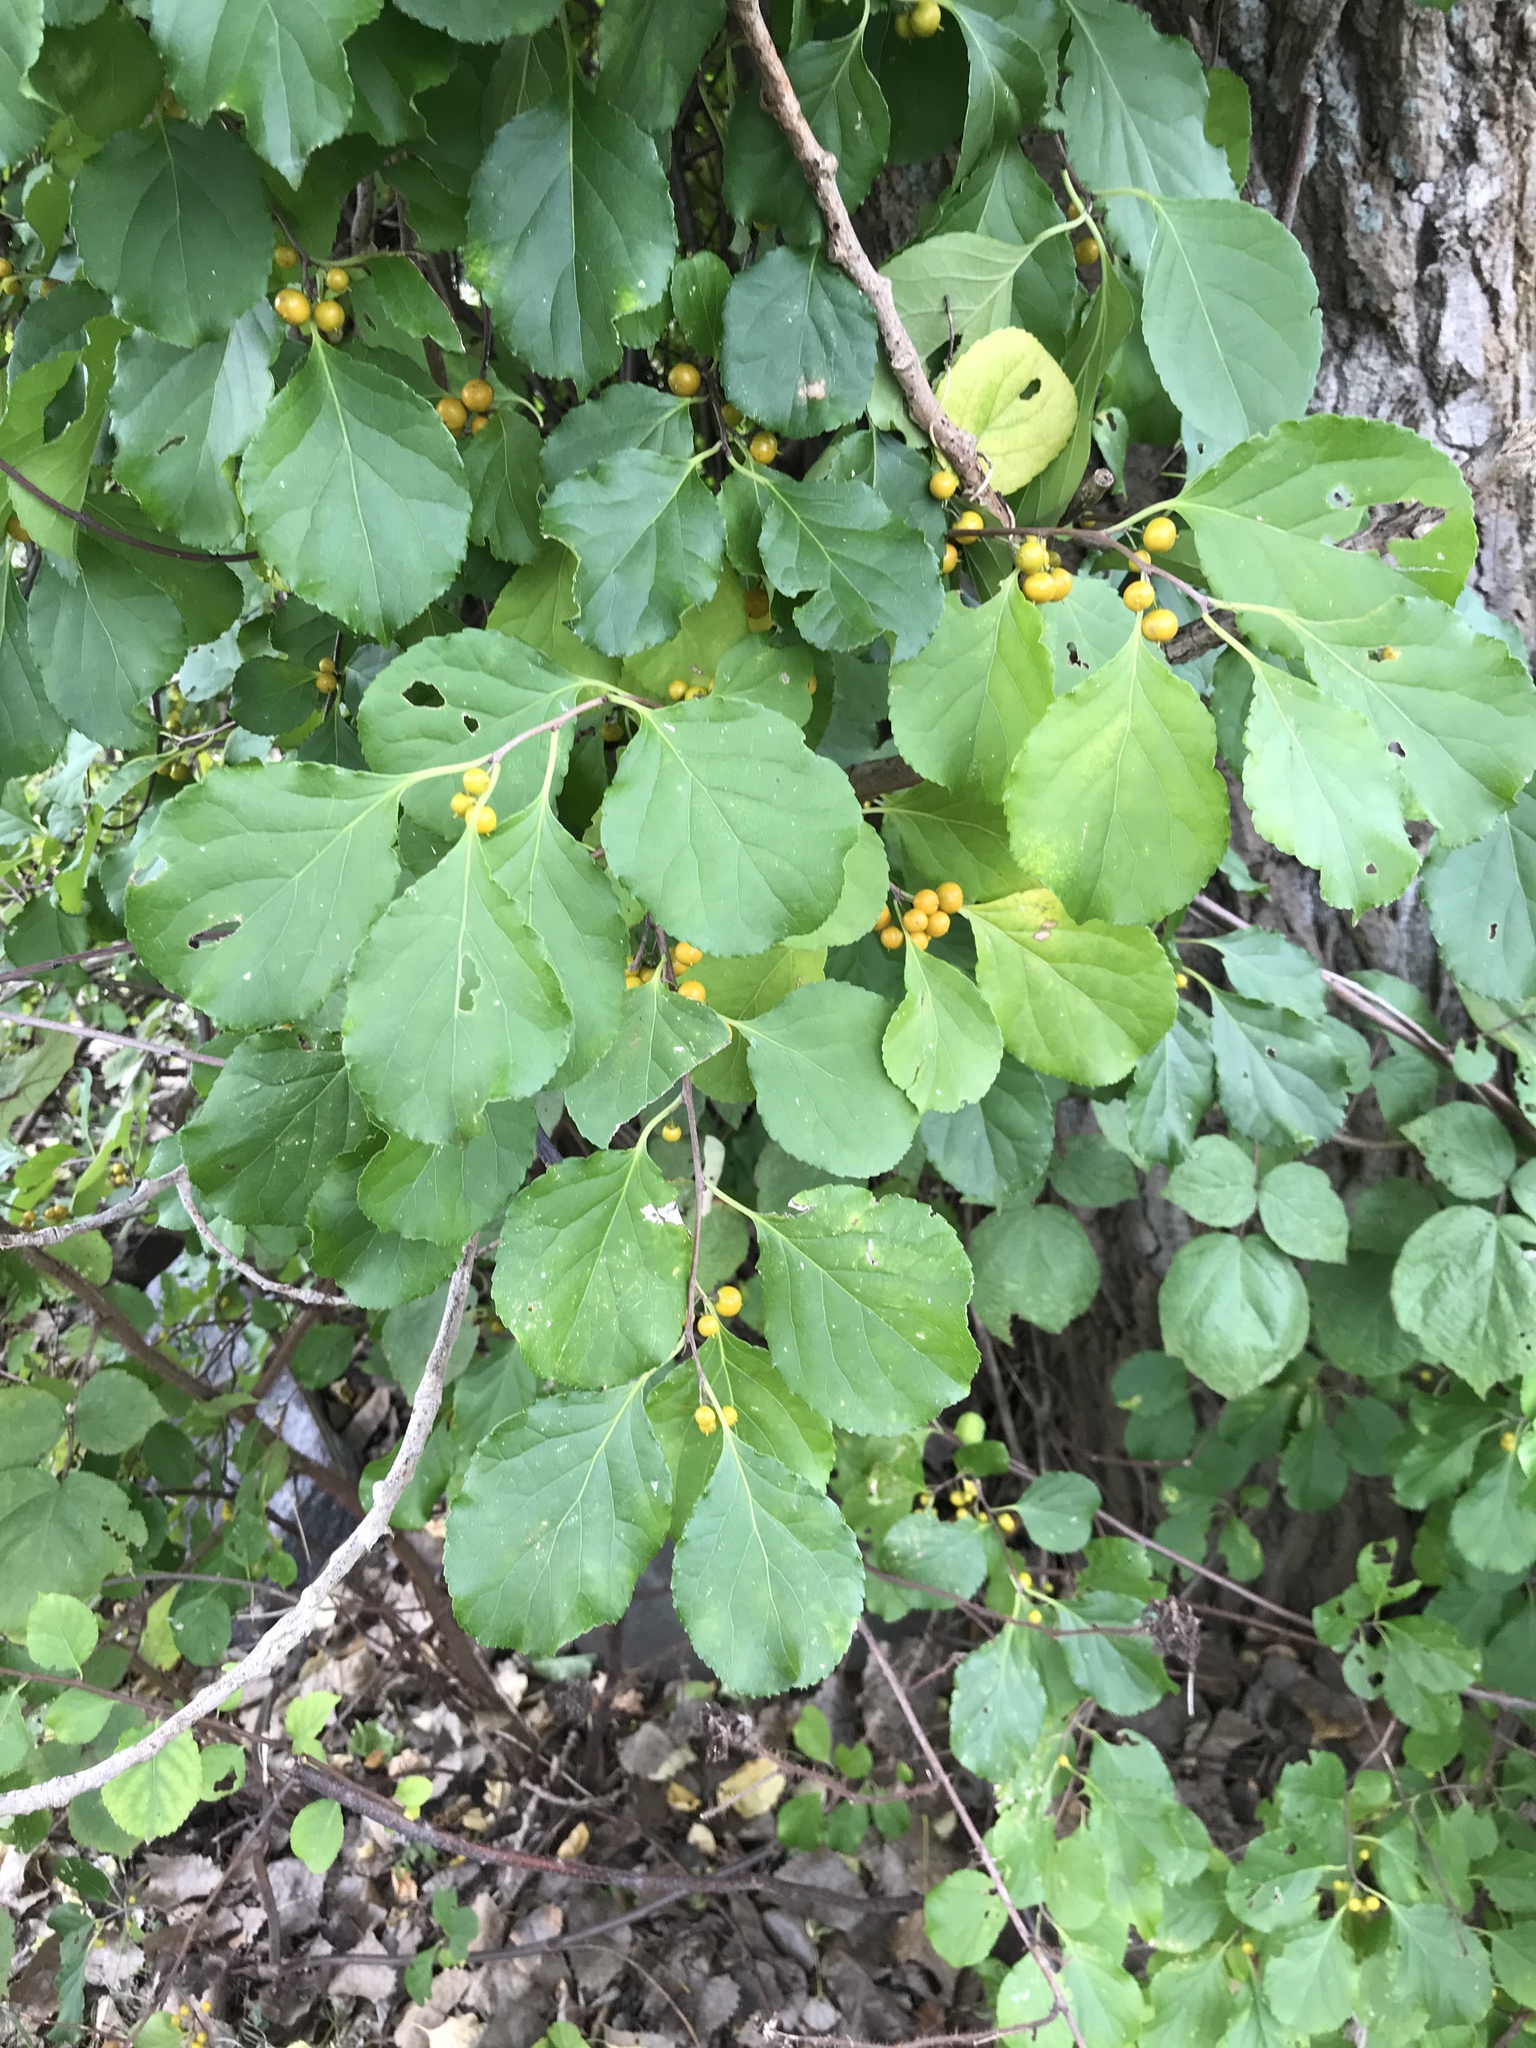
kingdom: Plantae
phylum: Tracheophyta
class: Magnoliopsida
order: Celastrales
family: Celastraceae
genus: Celastrus
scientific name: Celastrus orbiculatus
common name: Oriental bittersweet
